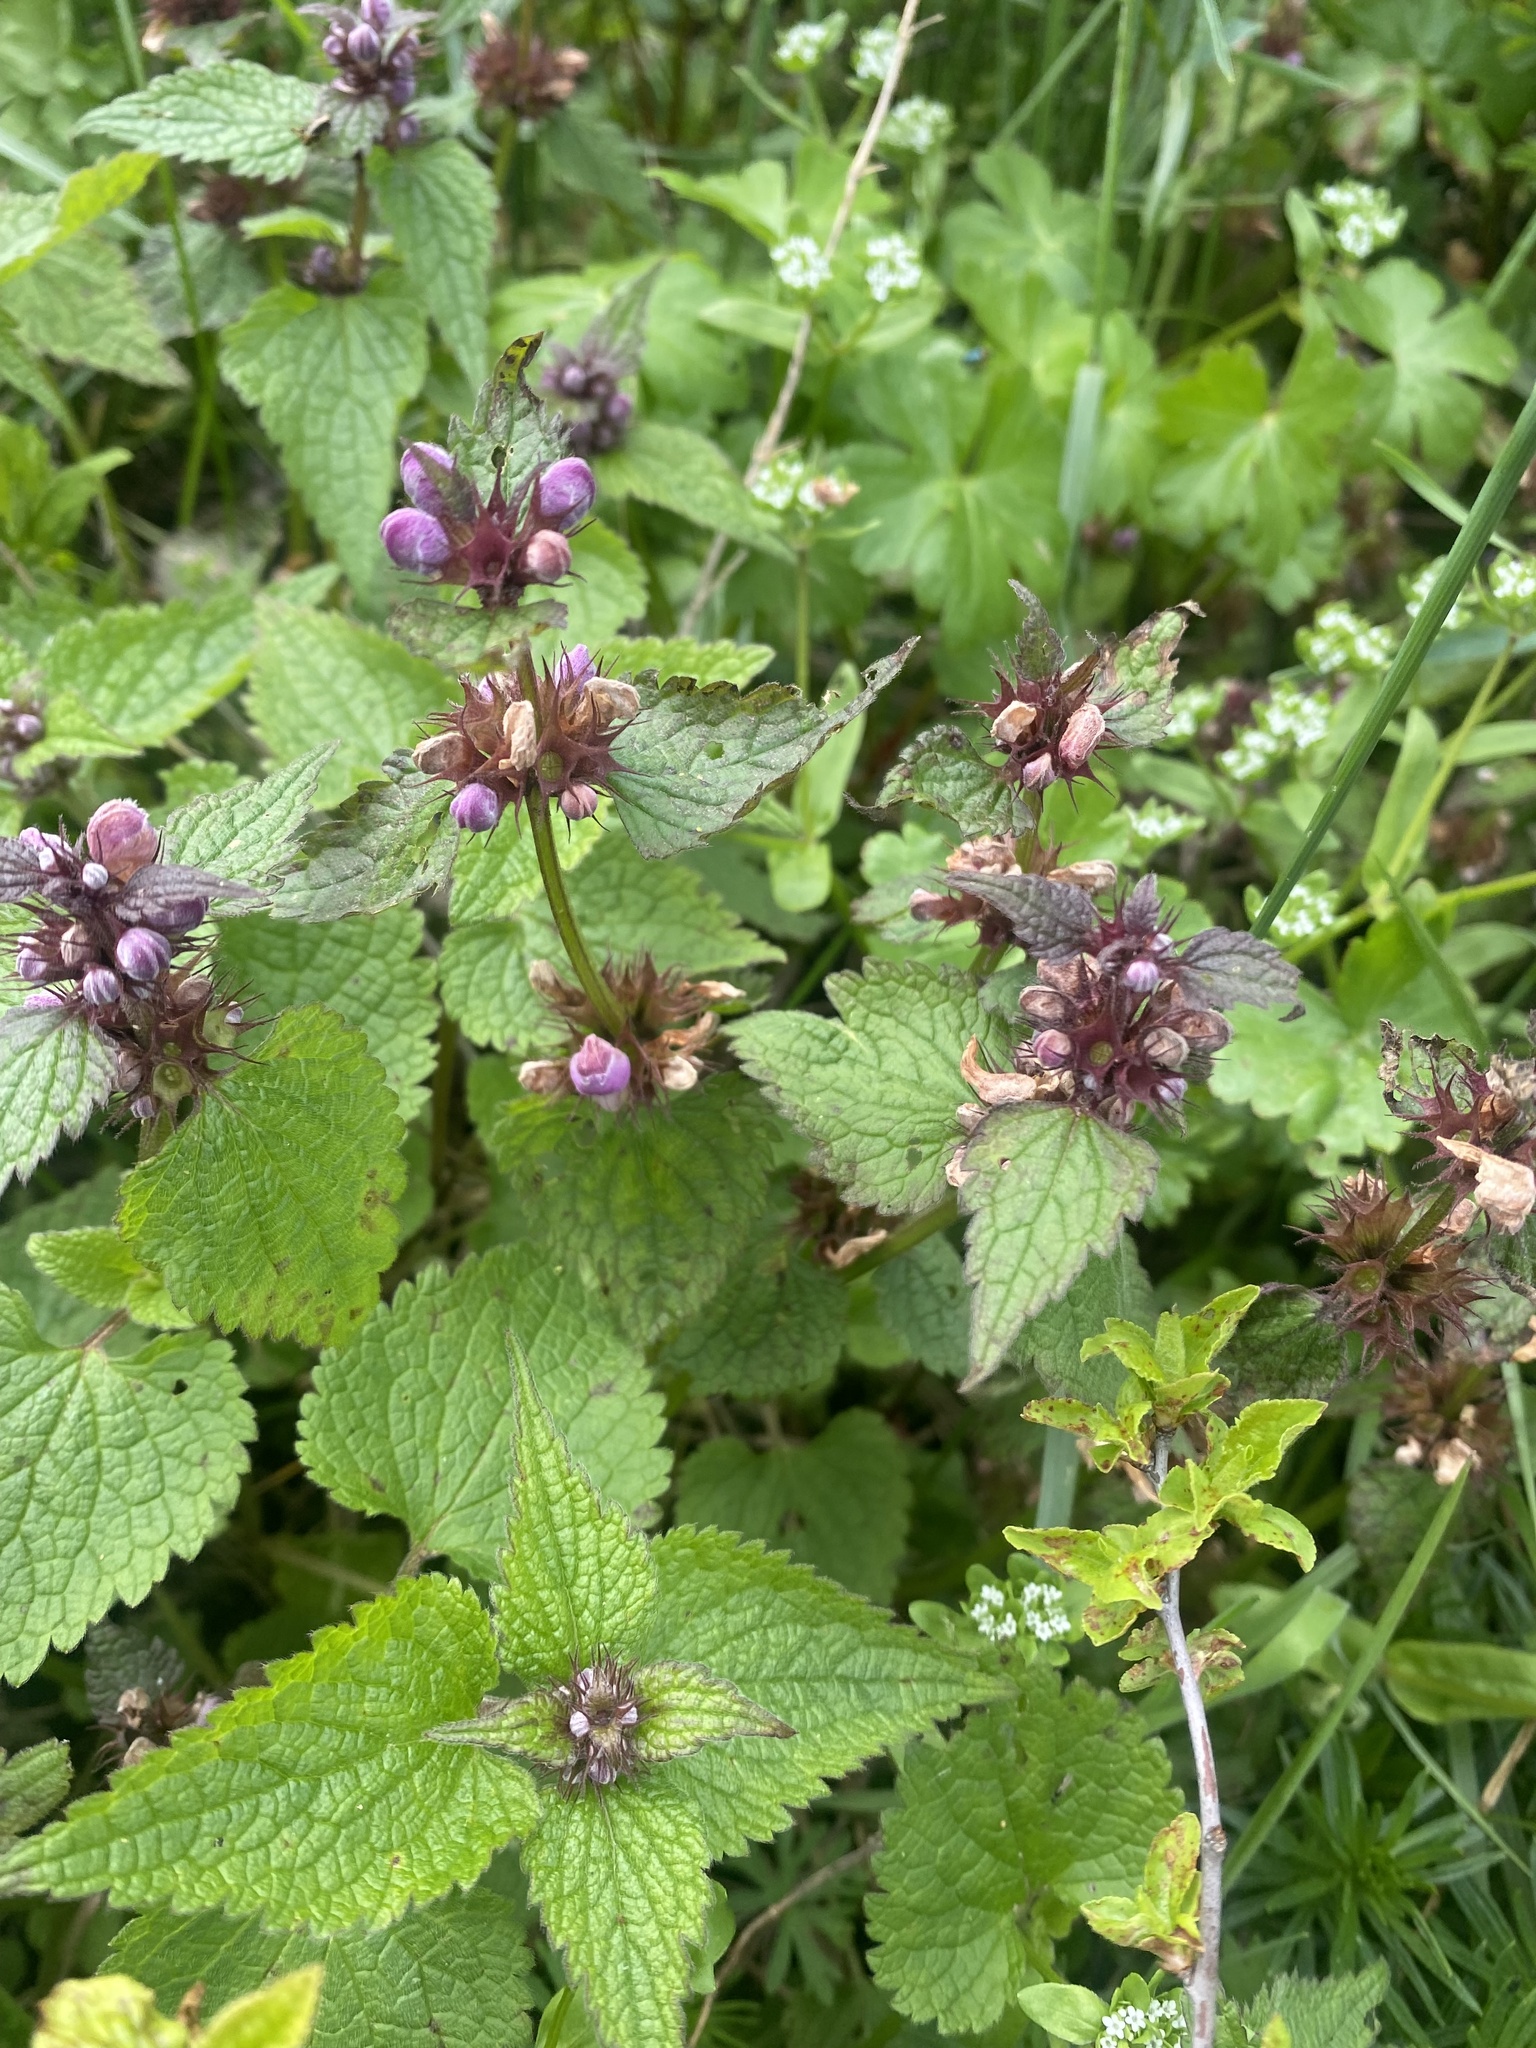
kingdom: Plantae
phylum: Tracheophyta
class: Magnoliopsida
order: Lamiales
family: Lamiaceae
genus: Lamium
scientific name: Lamium maculatum
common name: Spotted dead-nettle
